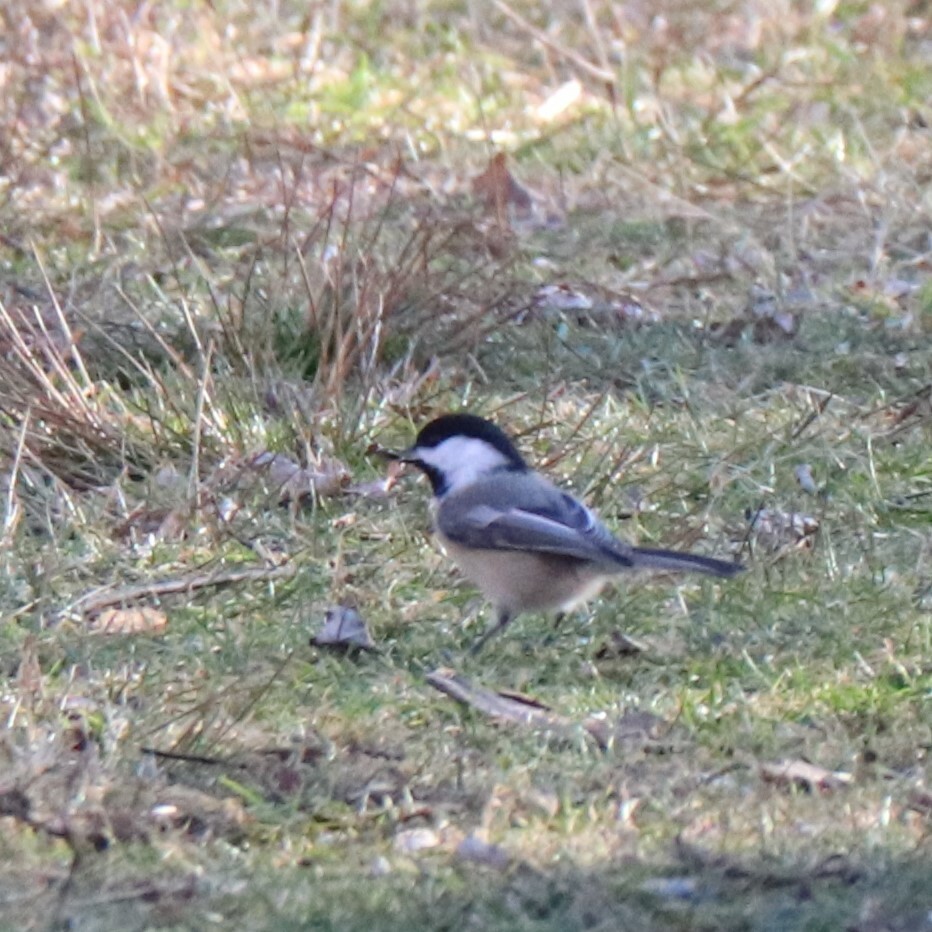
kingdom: Animalia
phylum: Chordata
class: Aves
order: Passeriformes
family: Paridae
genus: Poecile
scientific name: Poecile atricapillus
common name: Black-capped chickadee
